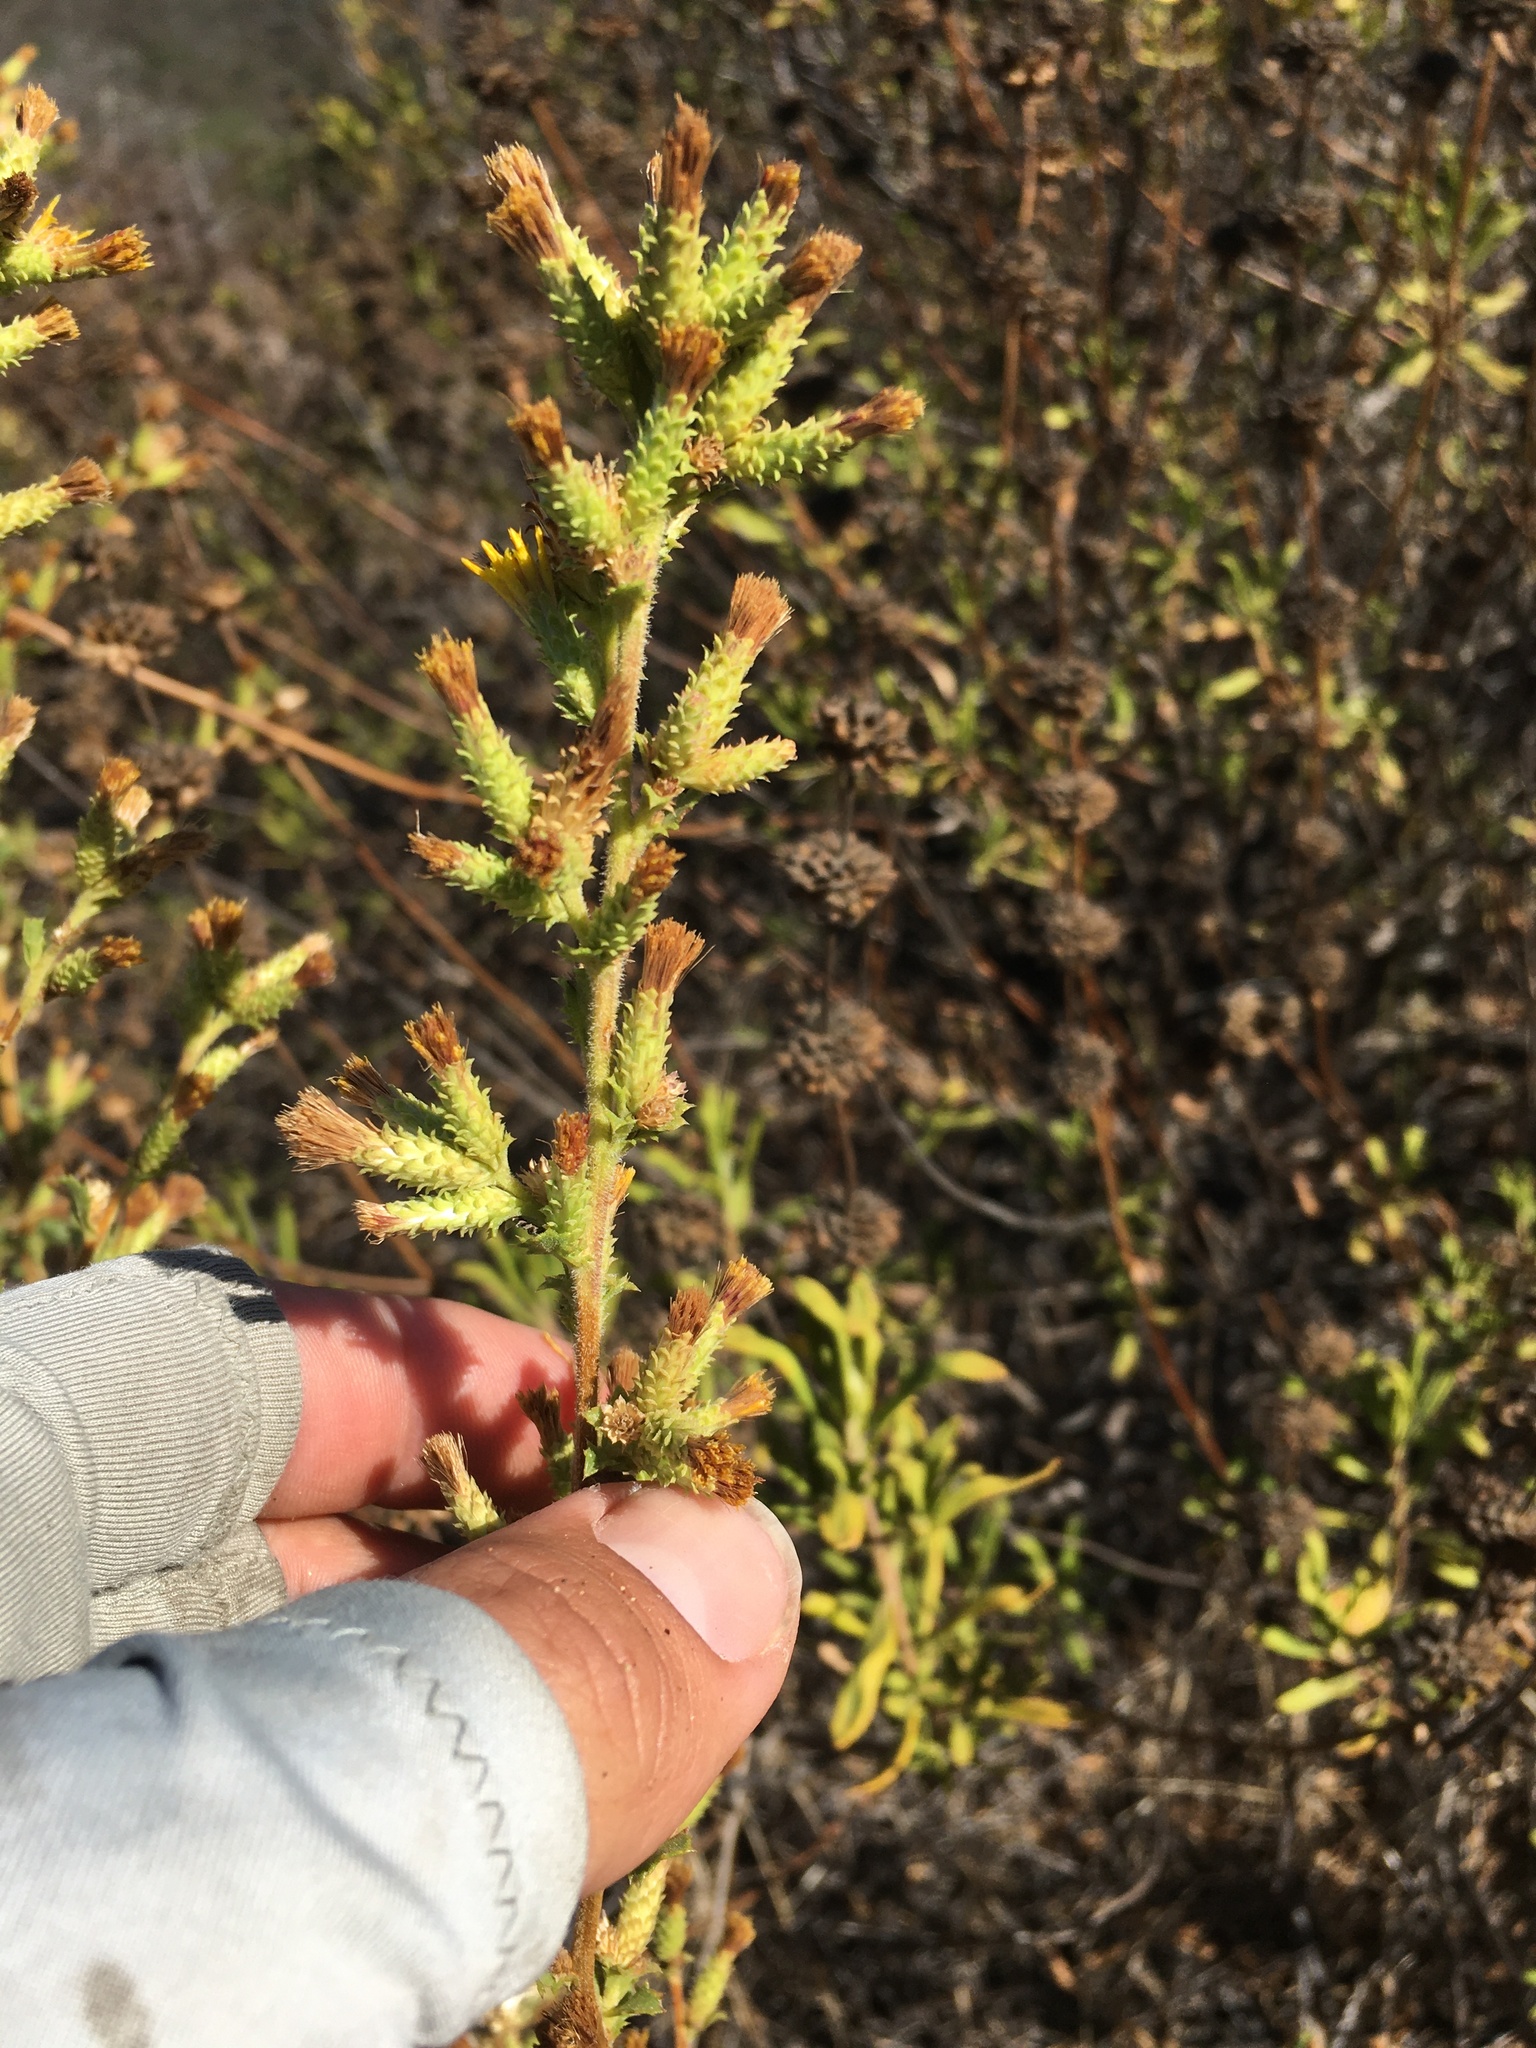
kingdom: Plantae
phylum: Tracheophyta
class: Magnoliopsida
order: Asterales
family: Asteraceae
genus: Hazardia
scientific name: Hazardia squarrosa
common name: Saw-tooth goldenbush
